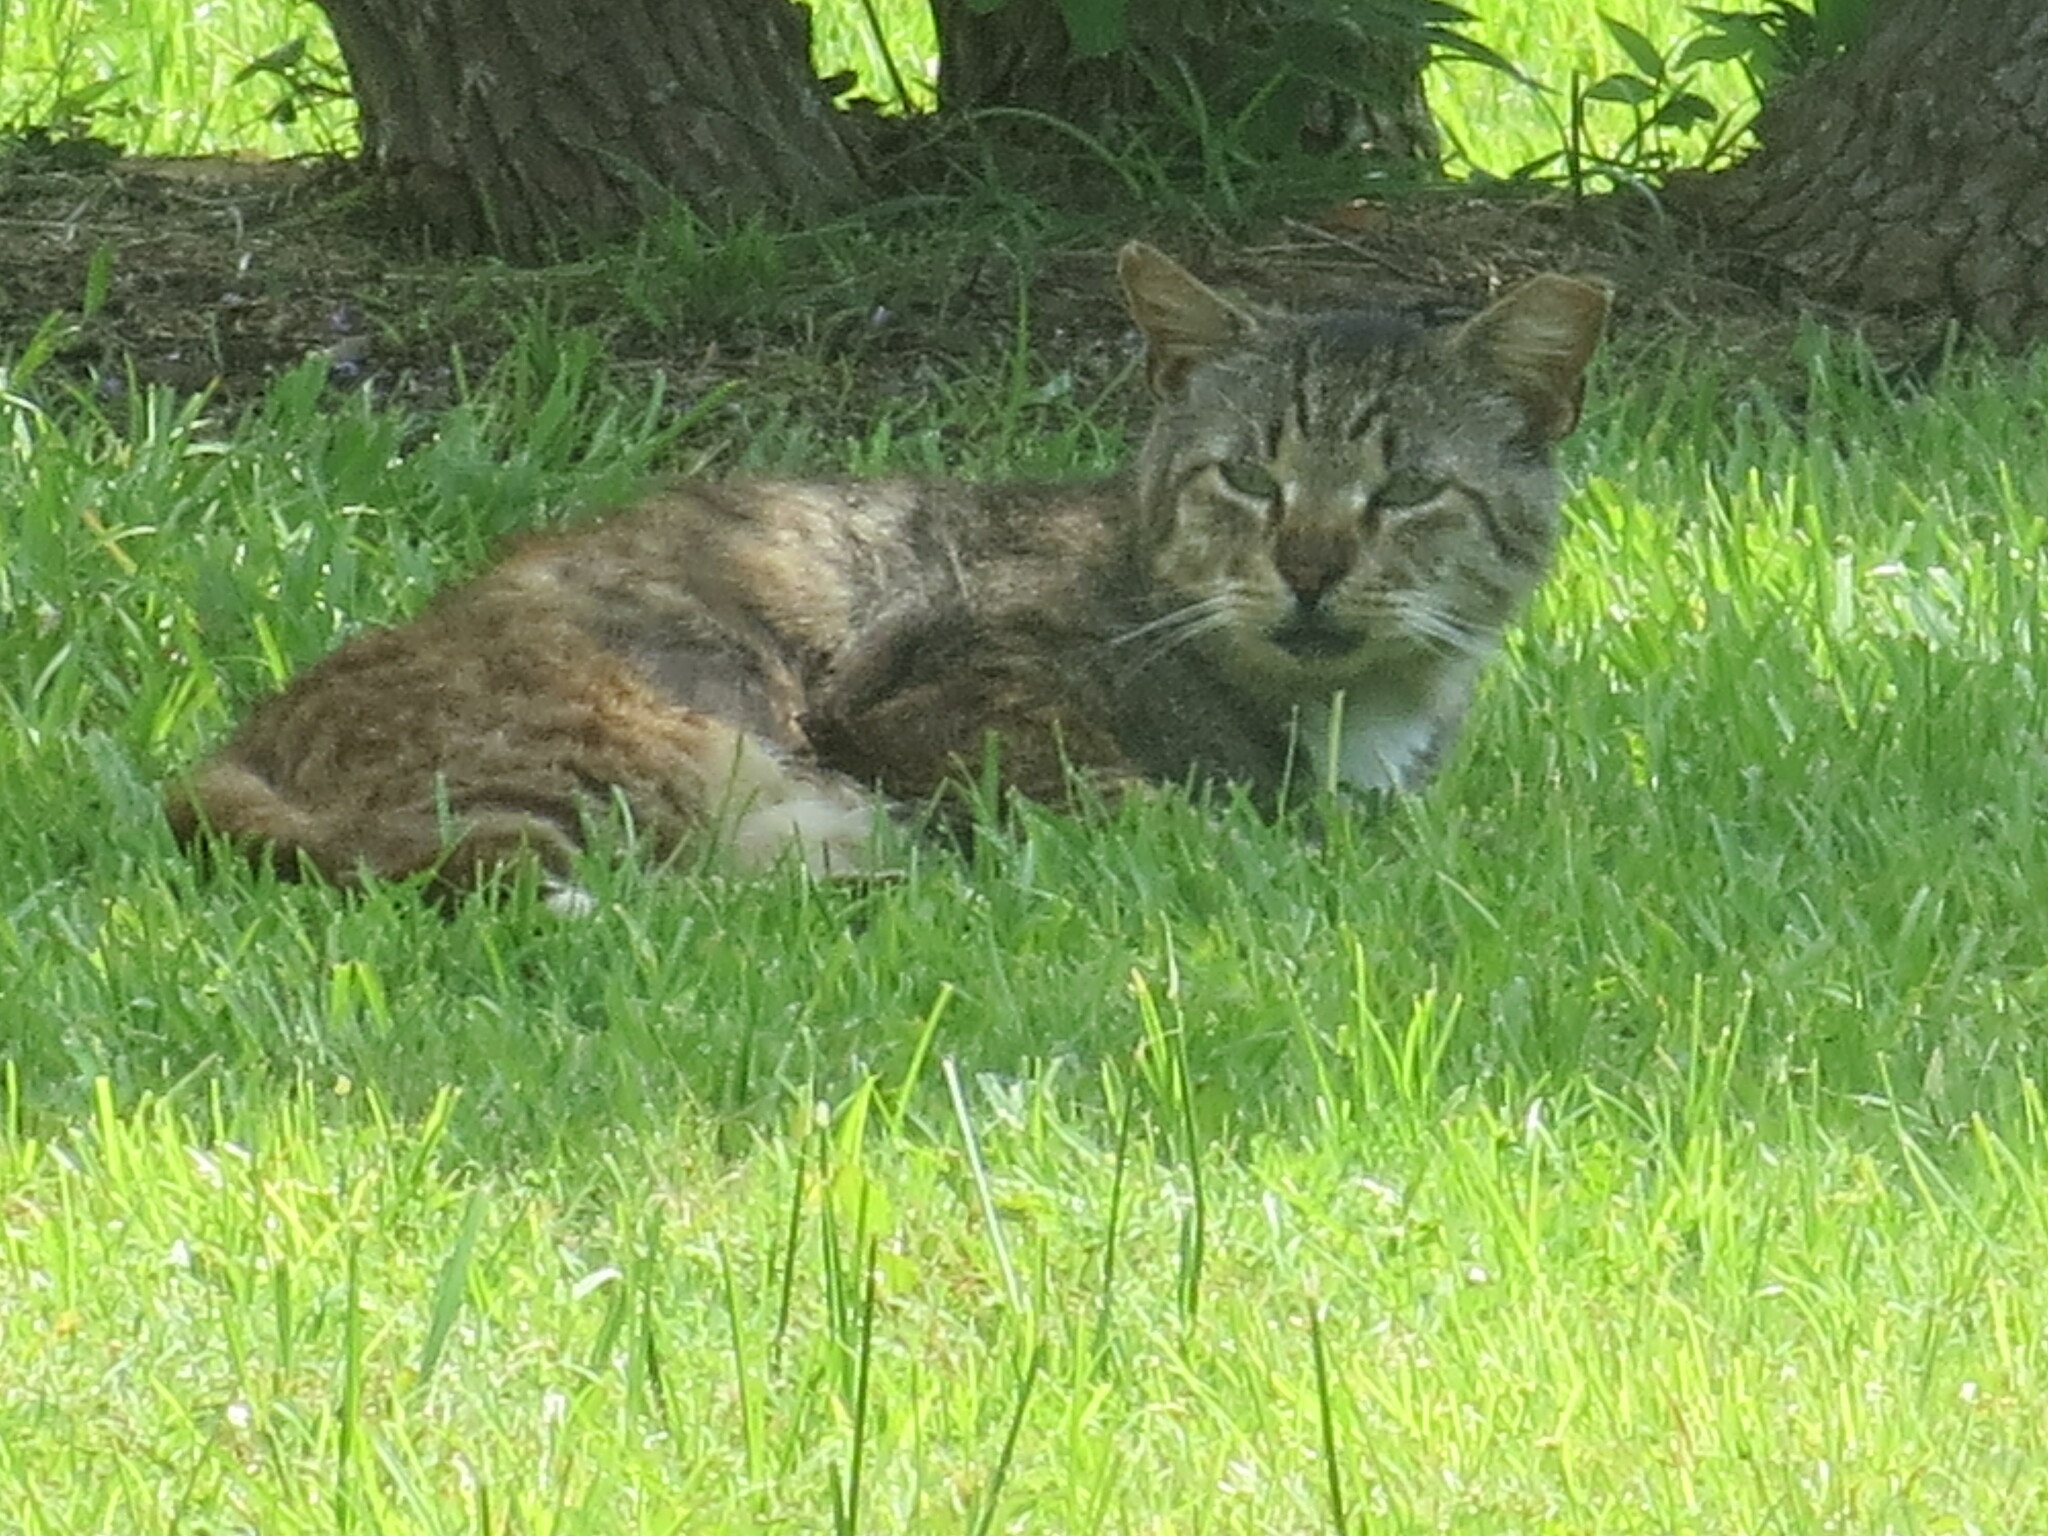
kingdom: Animalia
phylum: Chordata
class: Mammalia
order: Carnivora
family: Felidae
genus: Felis
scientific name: Felis catus
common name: Domestic cat
